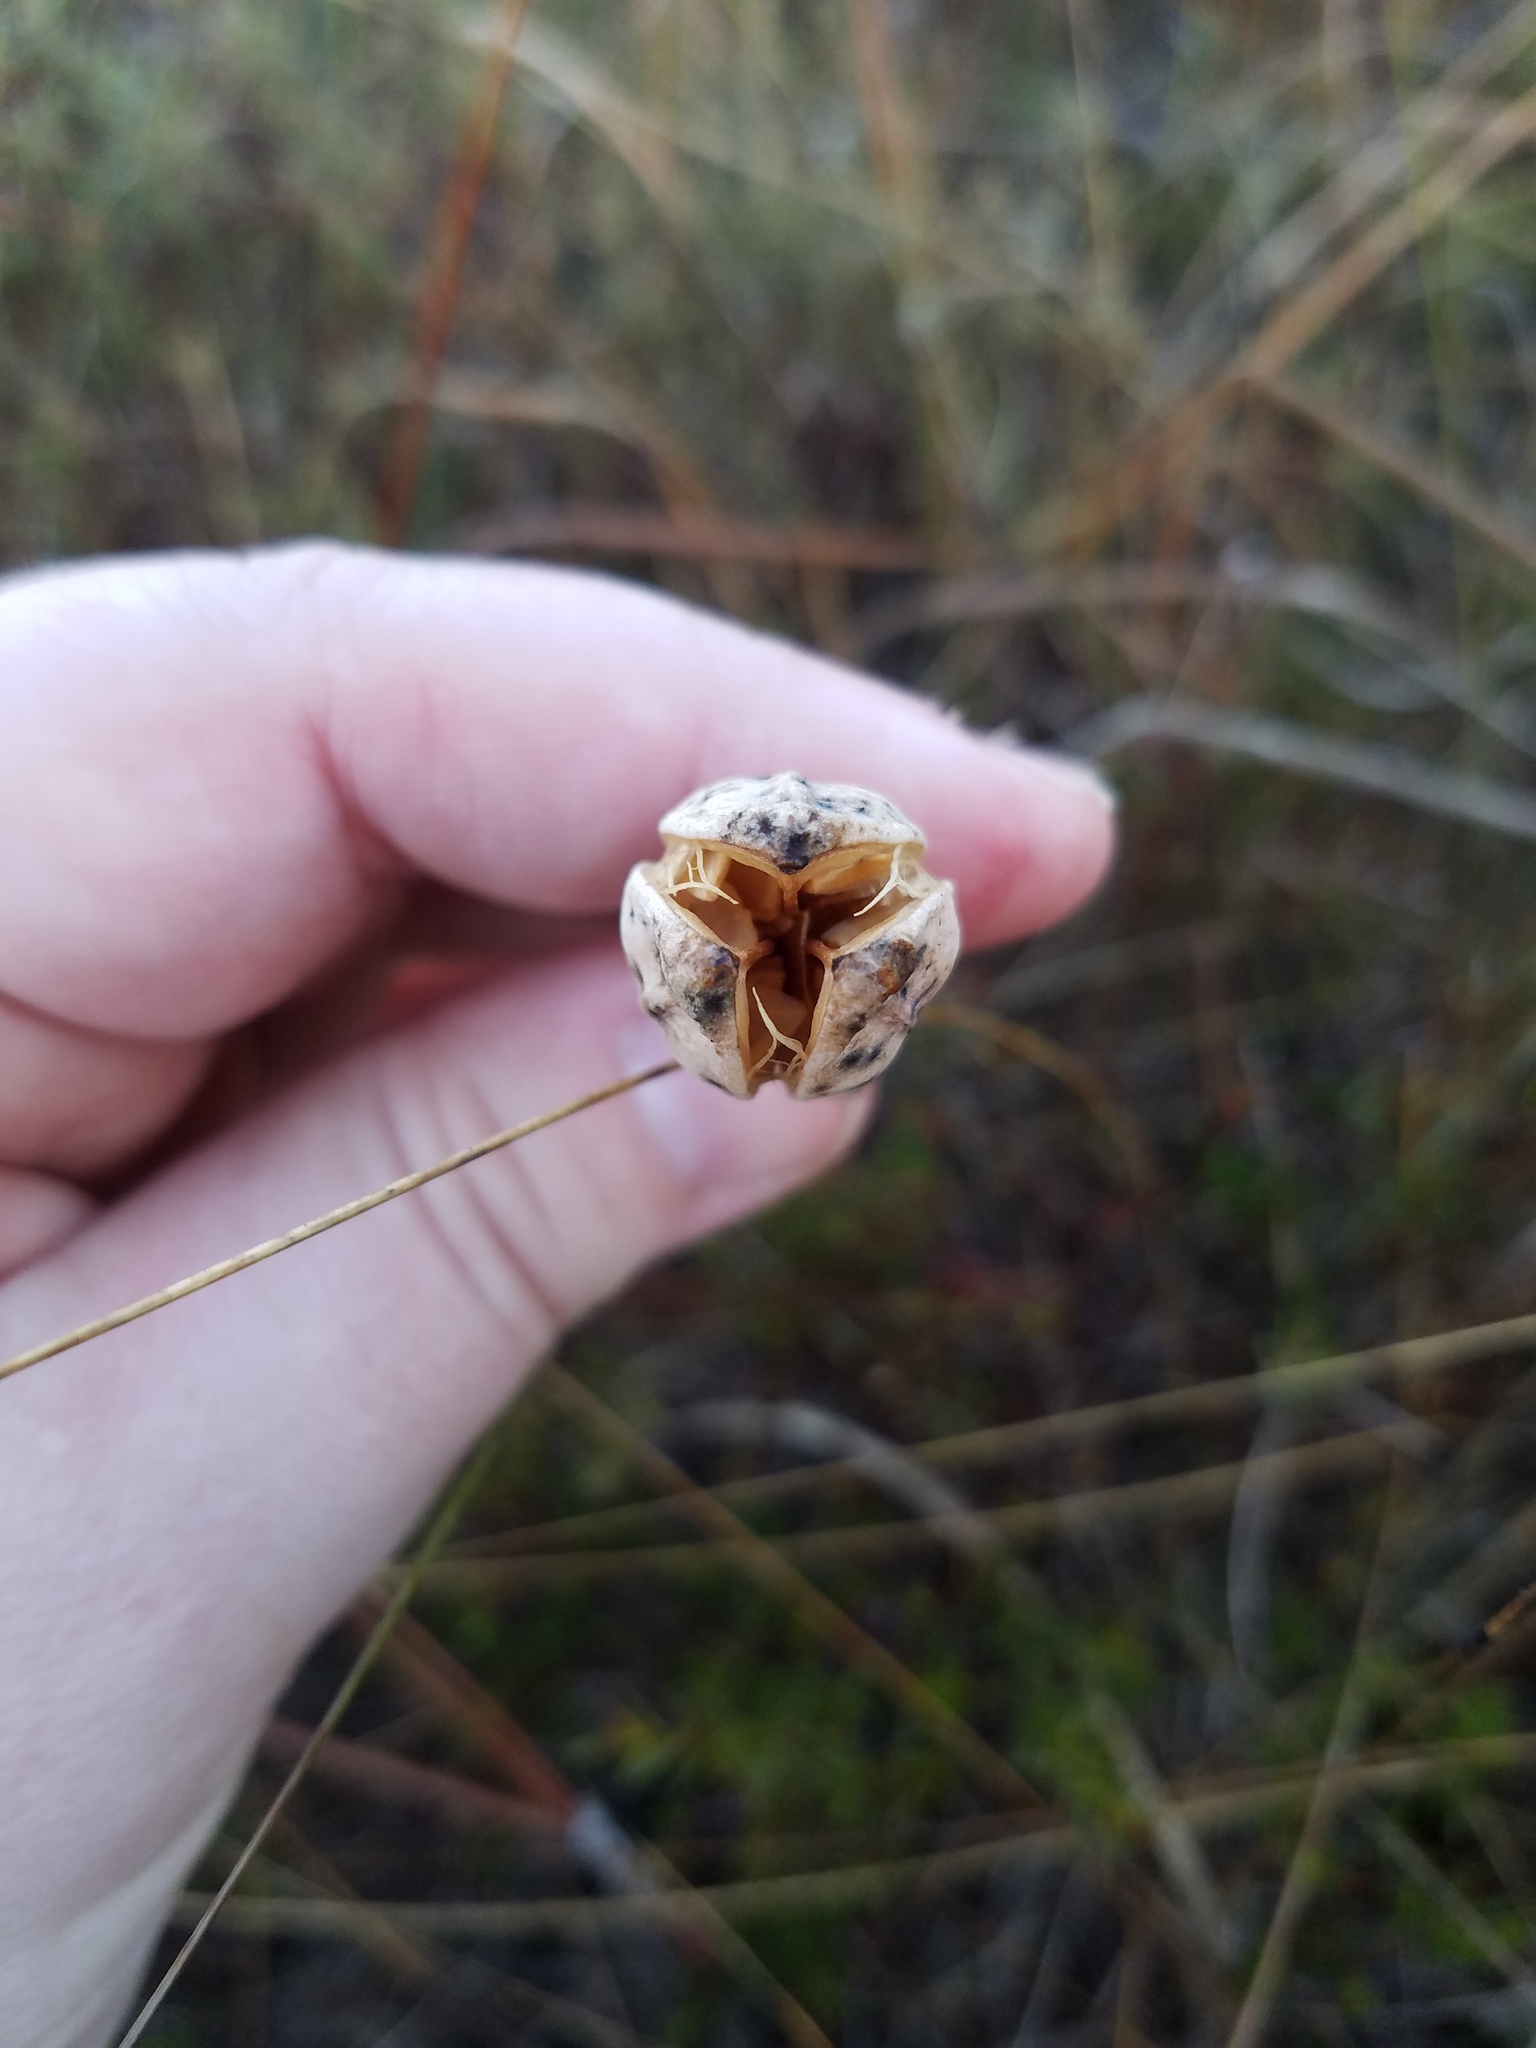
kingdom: Plantae
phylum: Tracheophyta
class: Liliopsida
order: Liliales
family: Liliaceae
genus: Lilium
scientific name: Lilium catesbaei
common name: Catesby's lily
